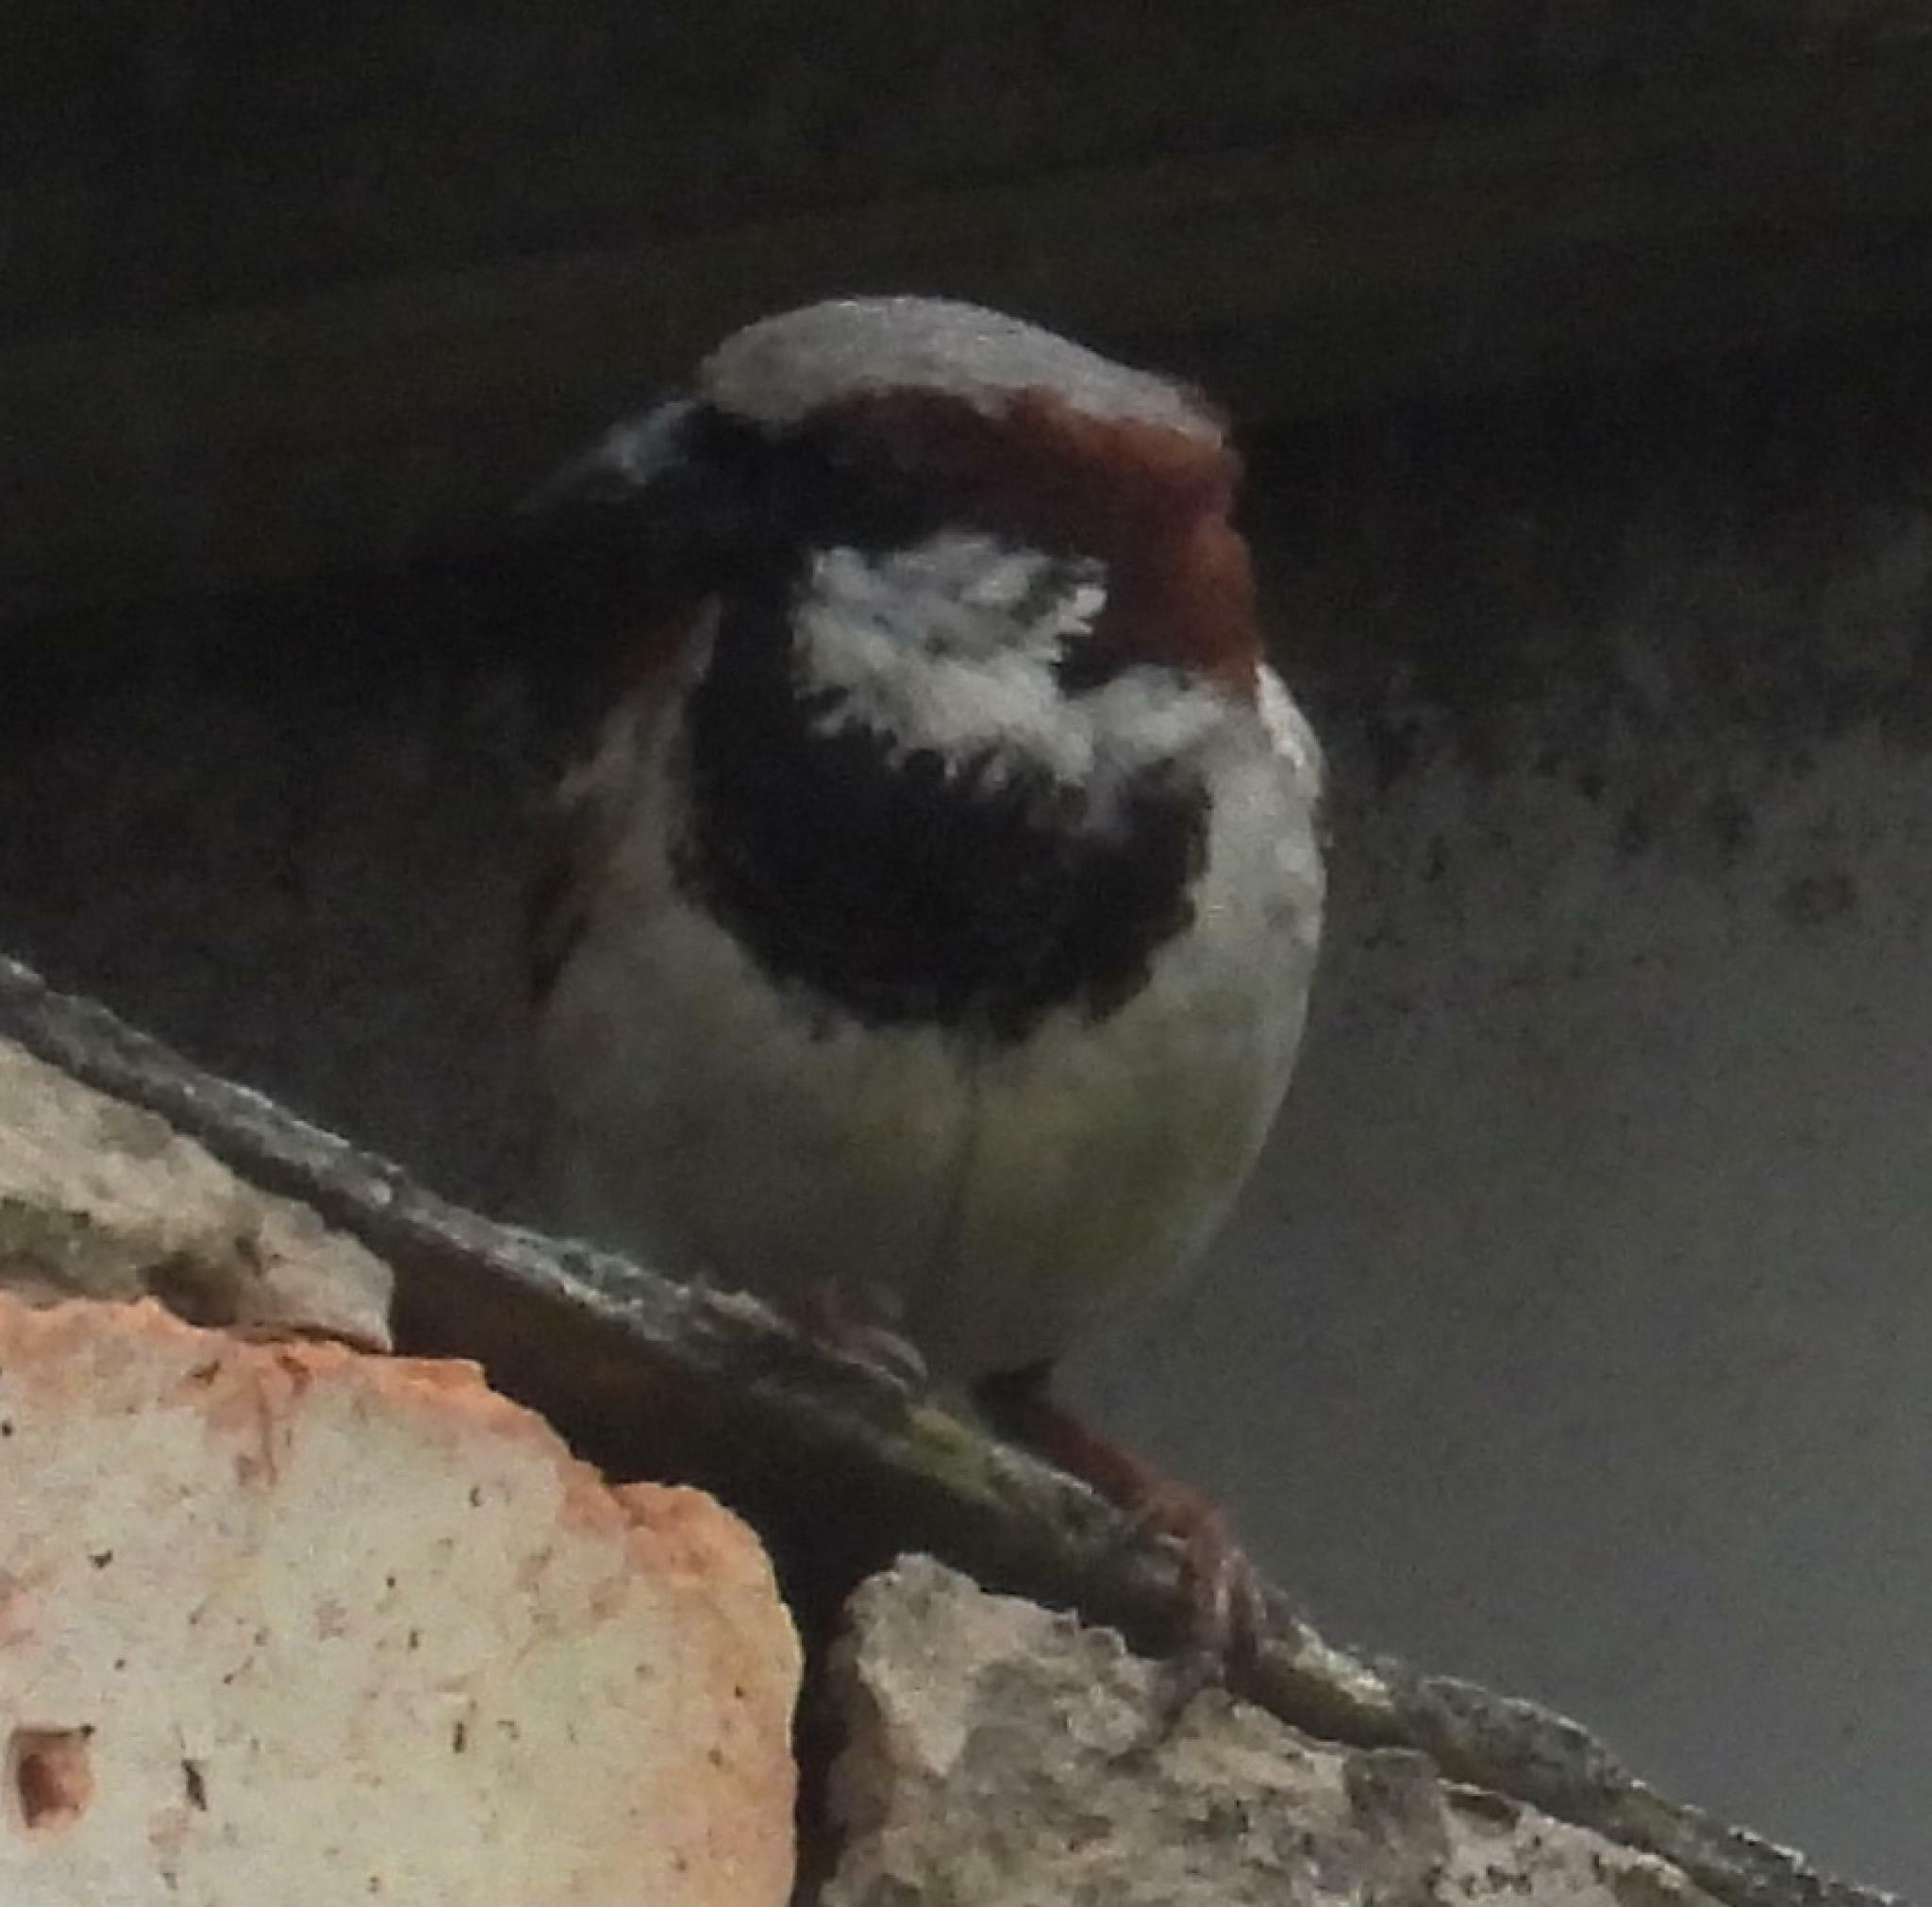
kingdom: Animalia
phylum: Chordata
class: Aves
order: Passeriformes
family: Passeridae
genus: Passer
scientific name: Passer domesticus
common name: House sparrow
